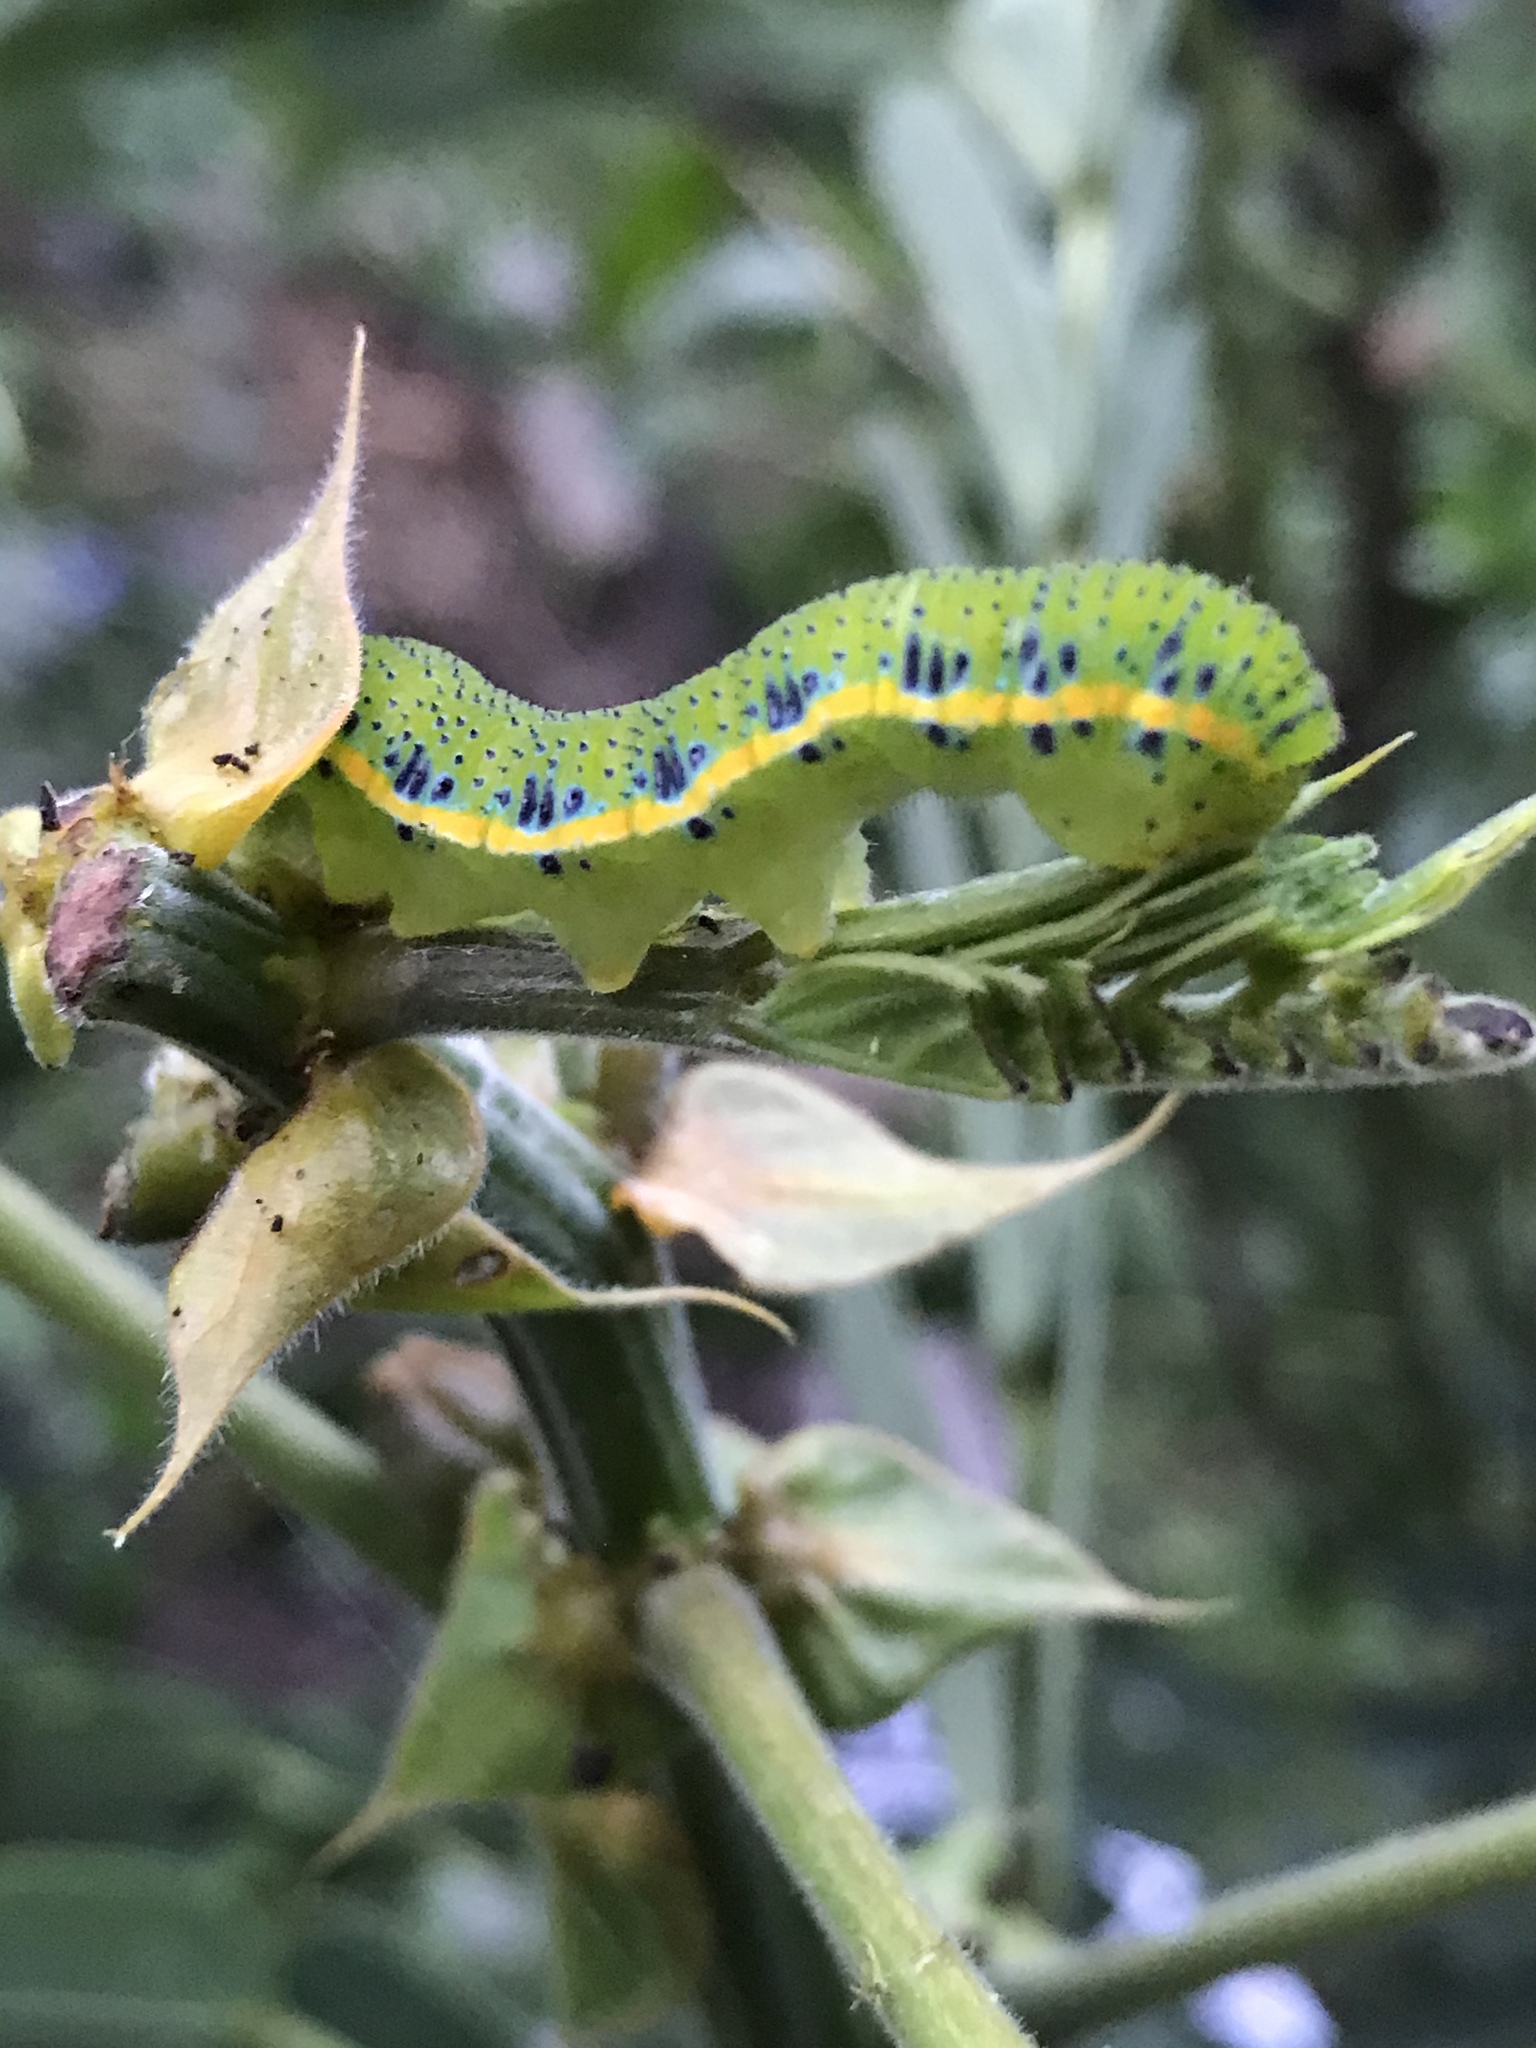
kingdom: Animalia
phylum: Arthropoda
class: Insecta
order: Lepidoptera
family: Pieridae
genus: Phoebis
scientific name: Phoebis sennae
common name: Cloudless sulphur
